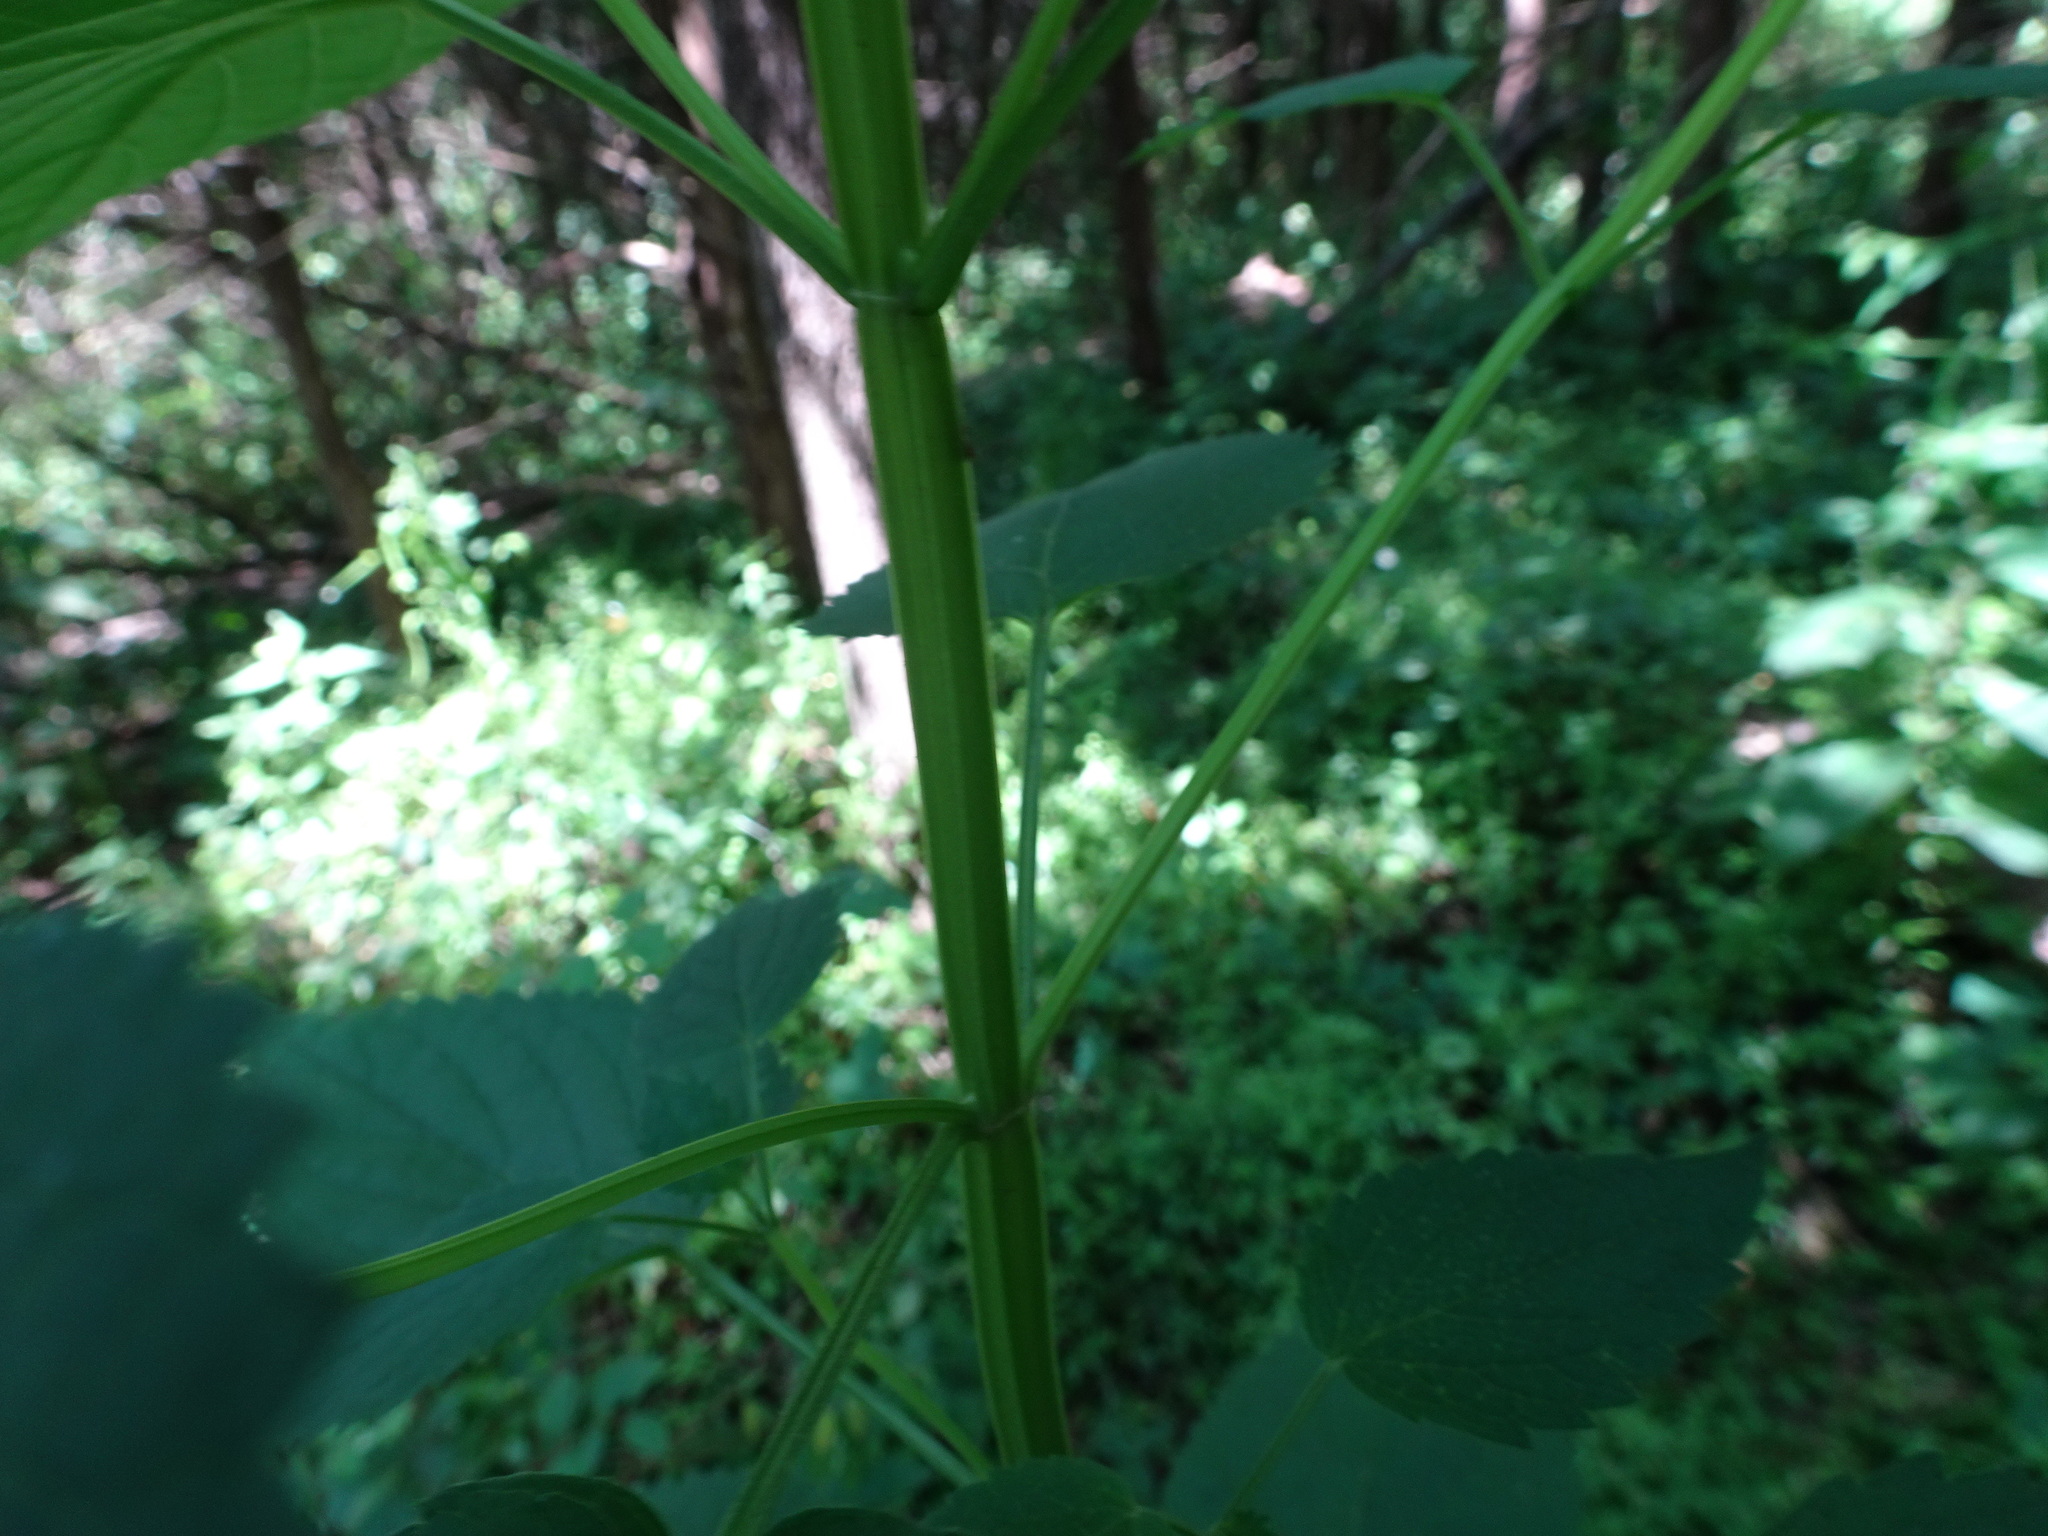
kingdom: Plantae
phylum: Tracheophyta
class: Magnoliopsida
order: Lamiales
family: Scrophulariaceae
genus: Scrophularia
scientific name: Scrophularia marilandica
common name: Eastern figwort
